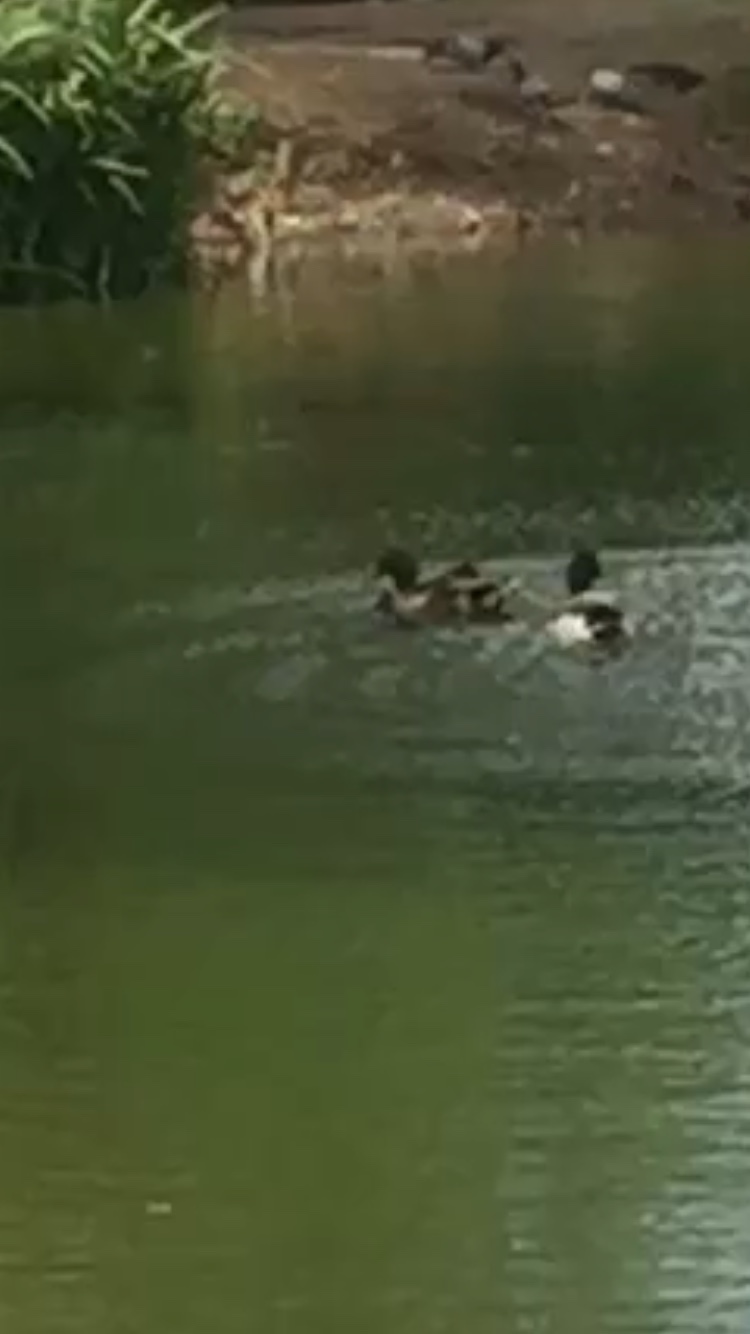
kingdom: Animalia
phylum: Chordata
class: Aves
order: Anseriformes
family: Anatidae
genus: Anas
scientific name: Anas platyrhynchos
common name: Mallard
